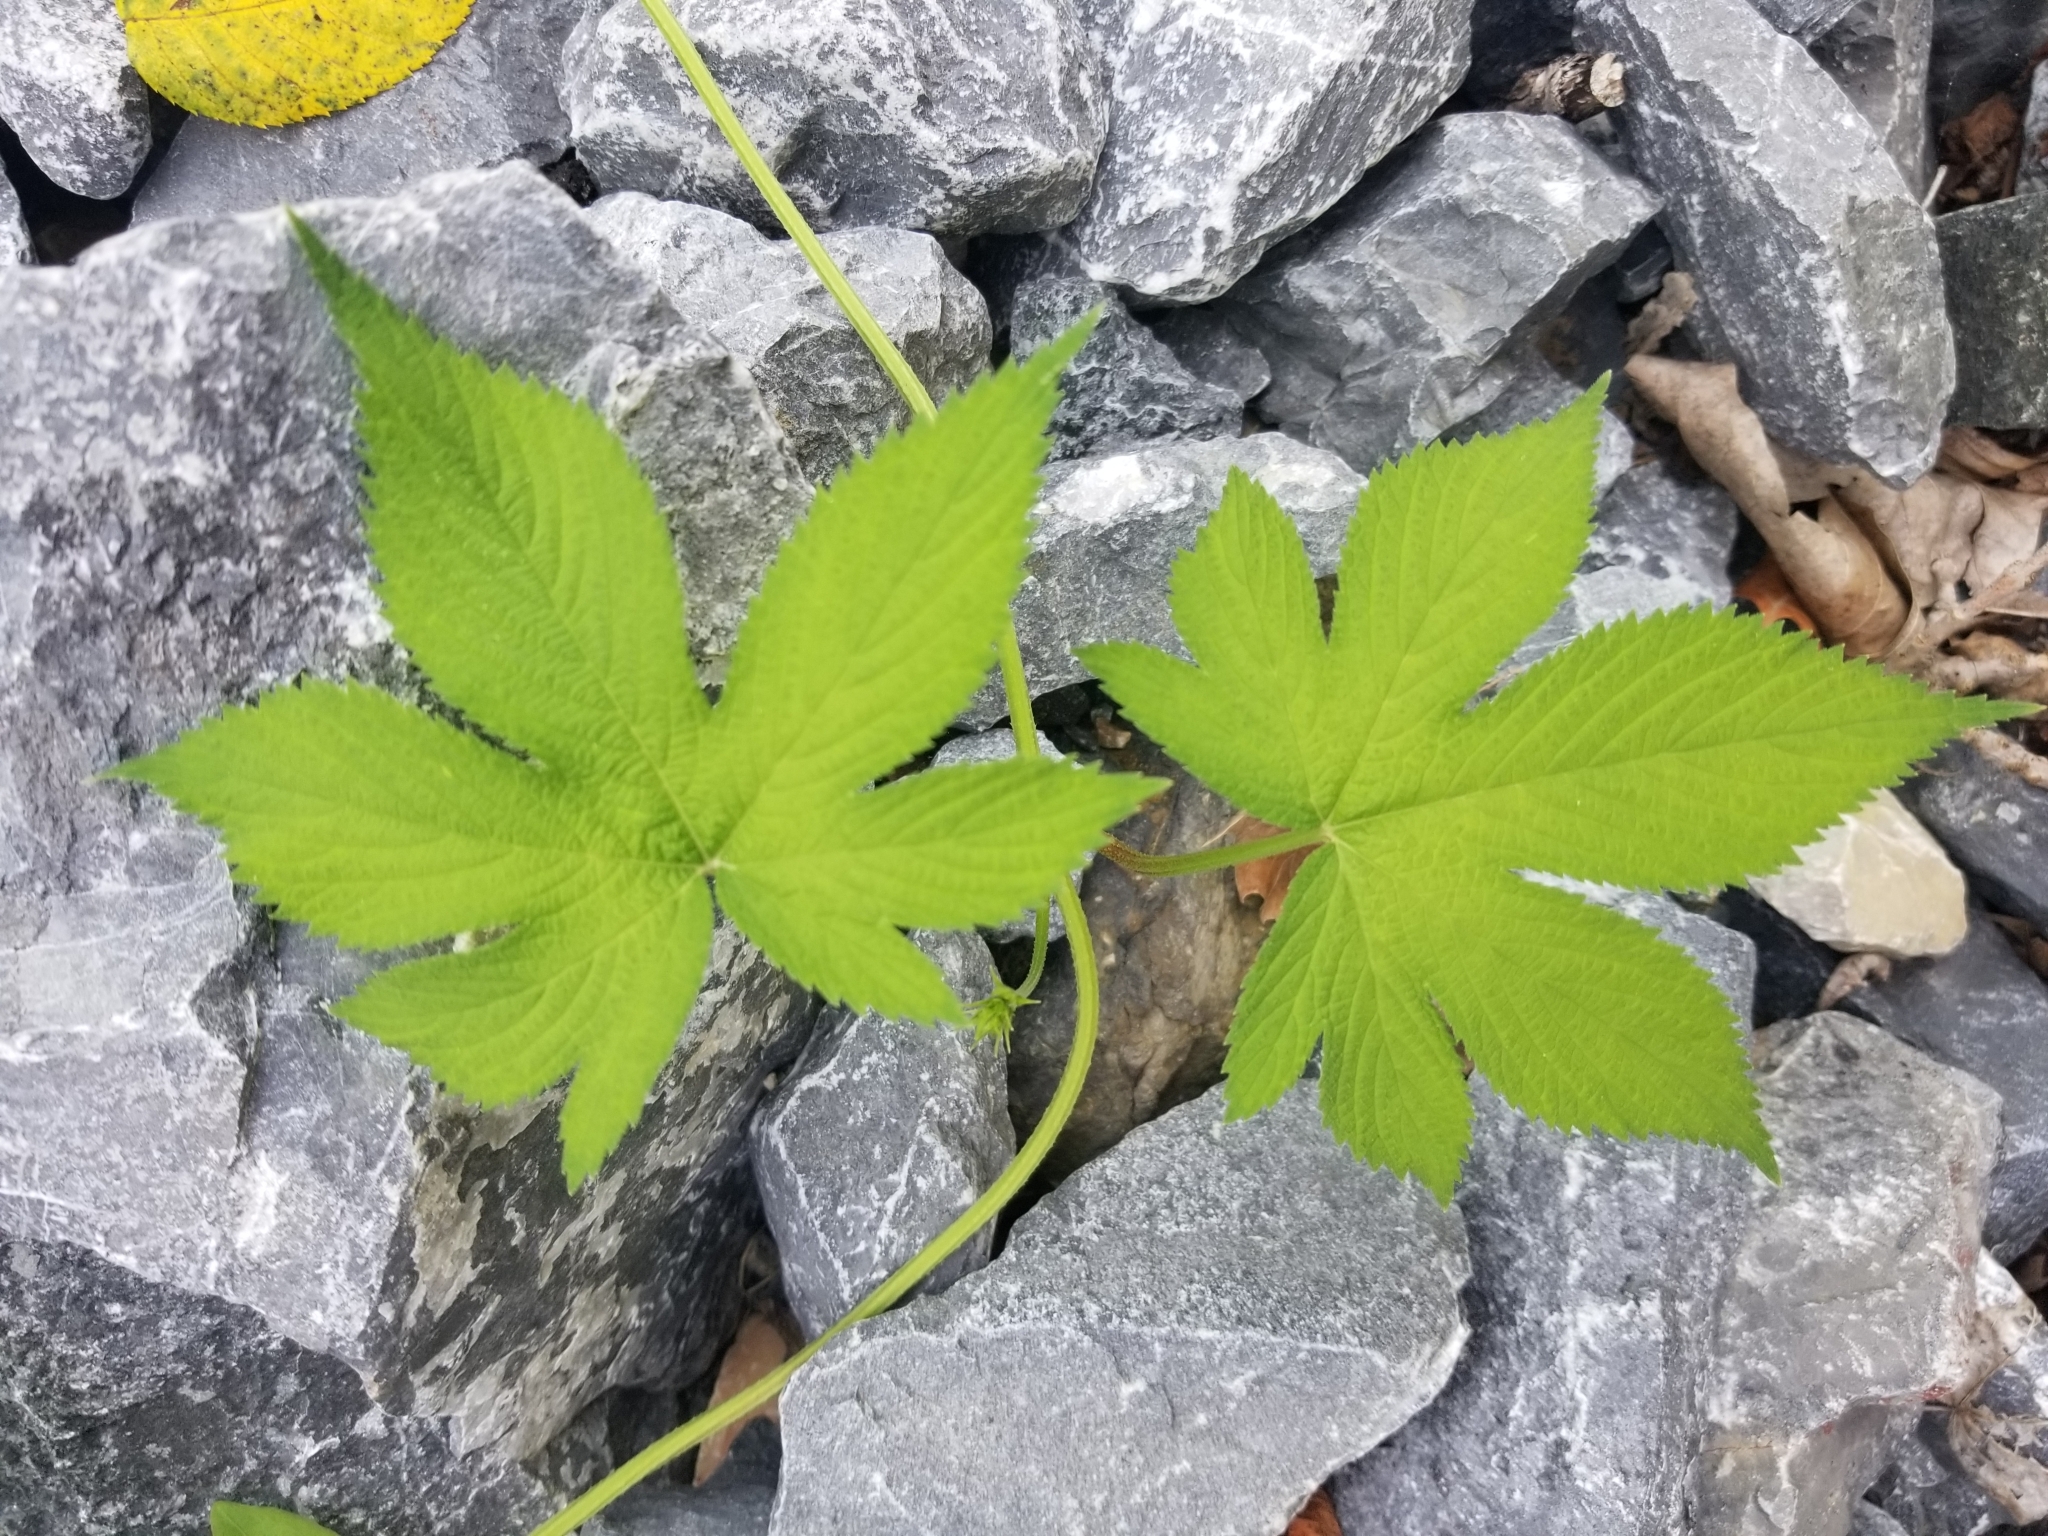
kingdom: Plantae
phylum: Tracheophyta
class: Magnoliopsida
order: Rosales
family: Cannabaceae
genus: Humulus
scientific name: Humulus scandens
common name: Japanese hop
